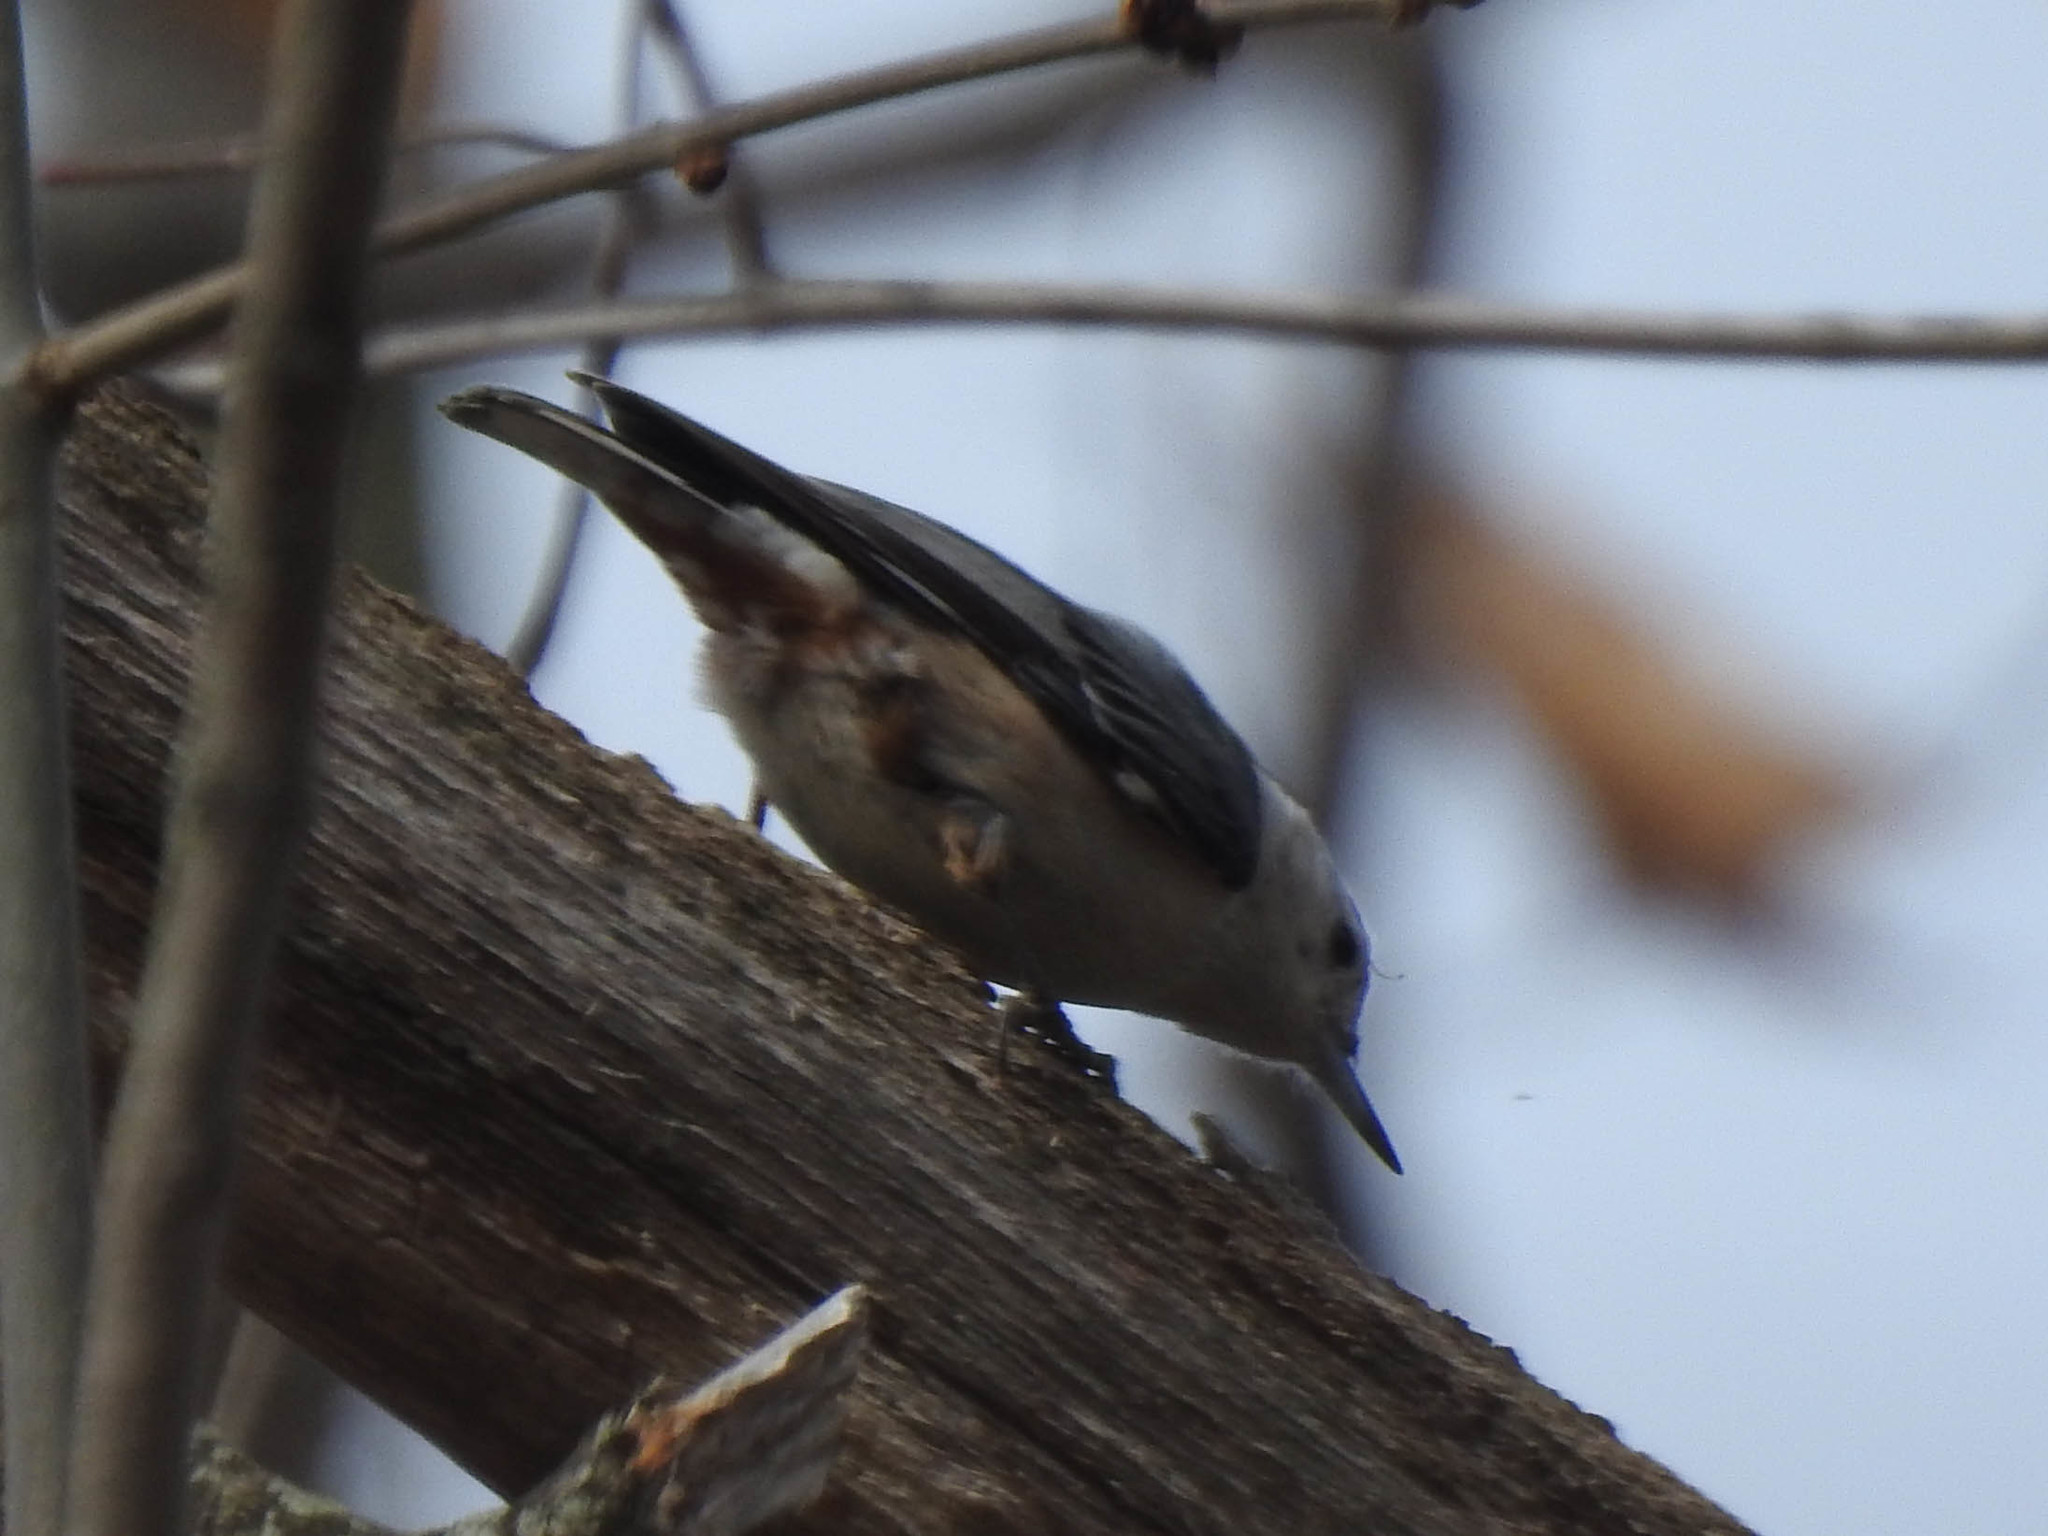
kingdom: Animalia
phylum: Chordata
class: Aves
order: Passeriformes
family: Sittidae
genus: Sitta
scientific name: Sitta carolinensis
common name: White-breasted nuthatch
